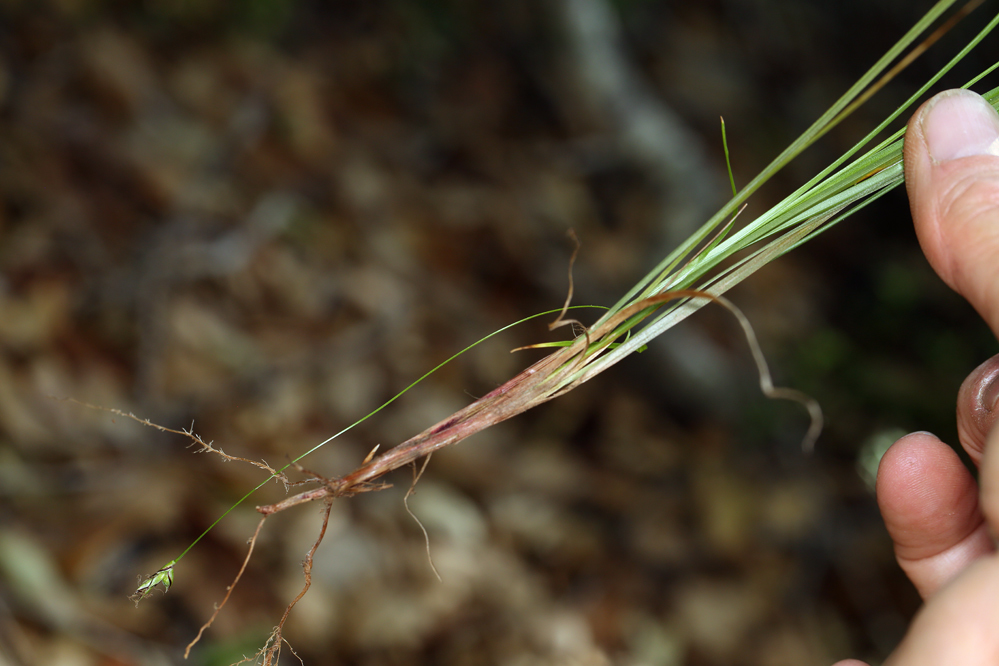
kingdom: Plantae
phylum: Tracheophyta
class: Liliopsida
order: Poales
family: Cyperaceae
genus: Carex
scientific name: Carex globosa
